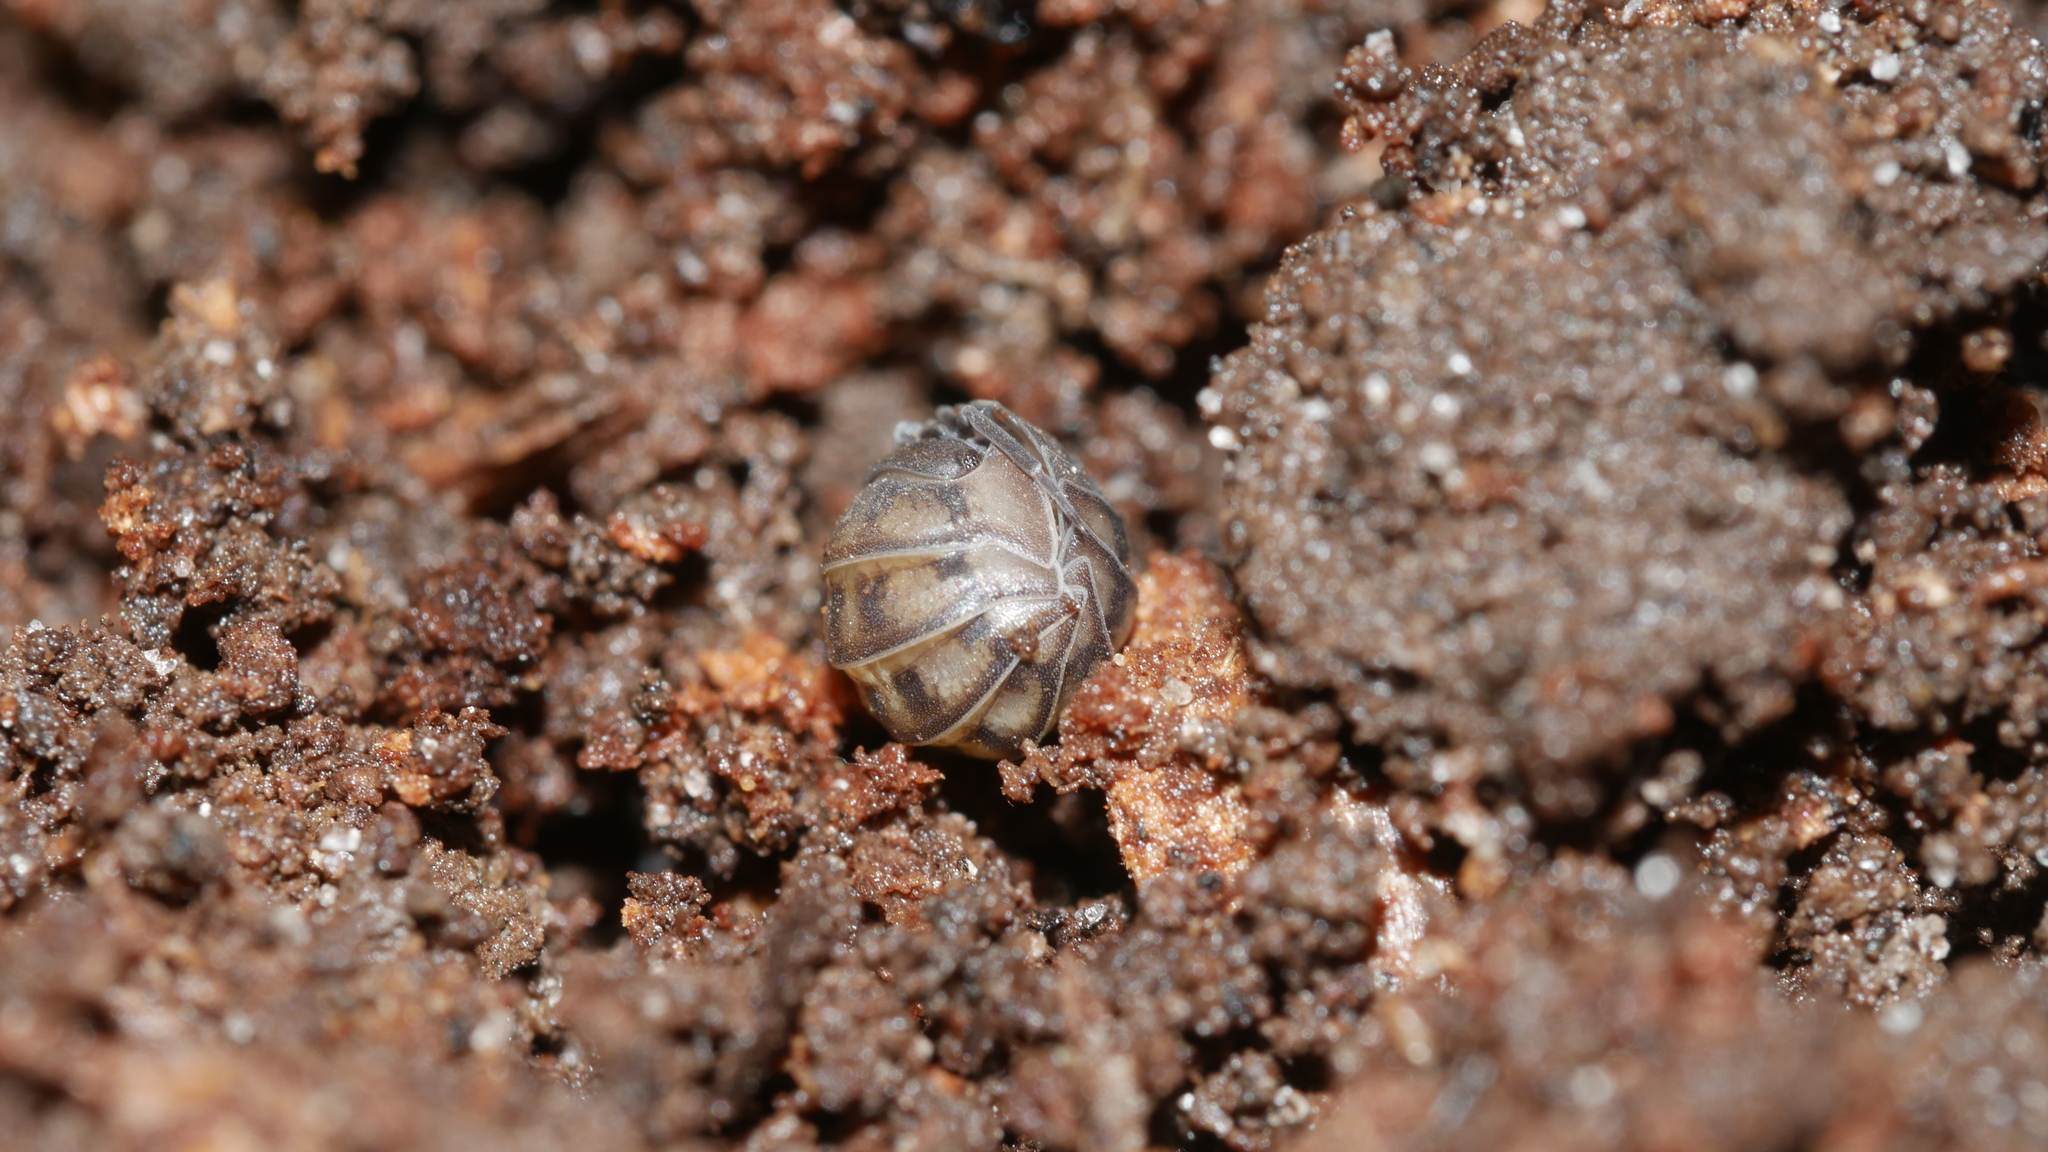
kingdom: Animalia
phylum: Arthropoda
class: Malacostraca
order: Isopoda
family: Armadillidiidae
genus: Armadillidium
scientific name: Armadillidium nasatum
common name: Isopod
